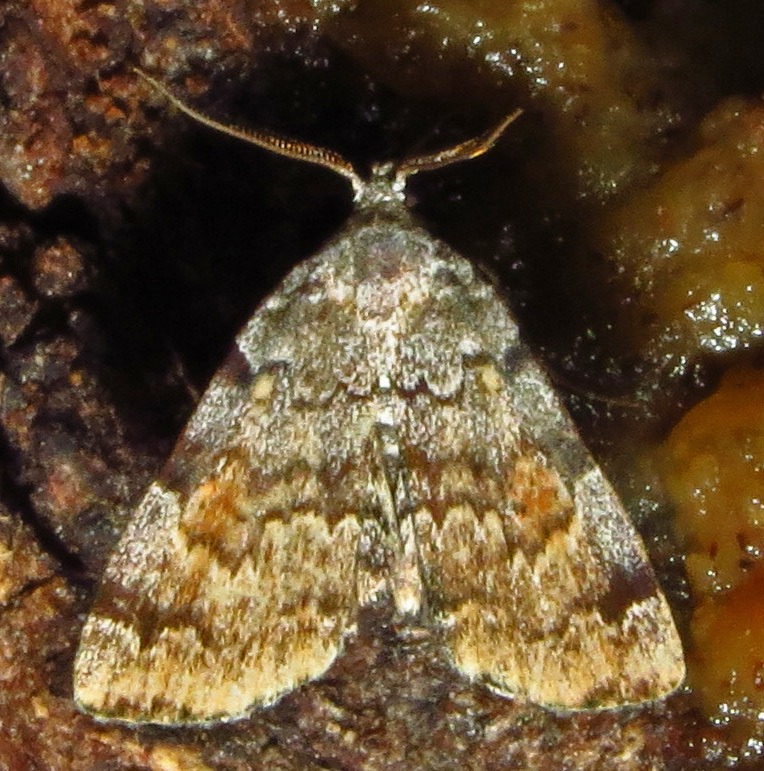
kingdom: Animalia
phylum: Arthropoda
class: Insecta
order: Lepidoptera
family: Erebidae
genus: Idia
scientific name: Idia americalis
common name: American idia moth
